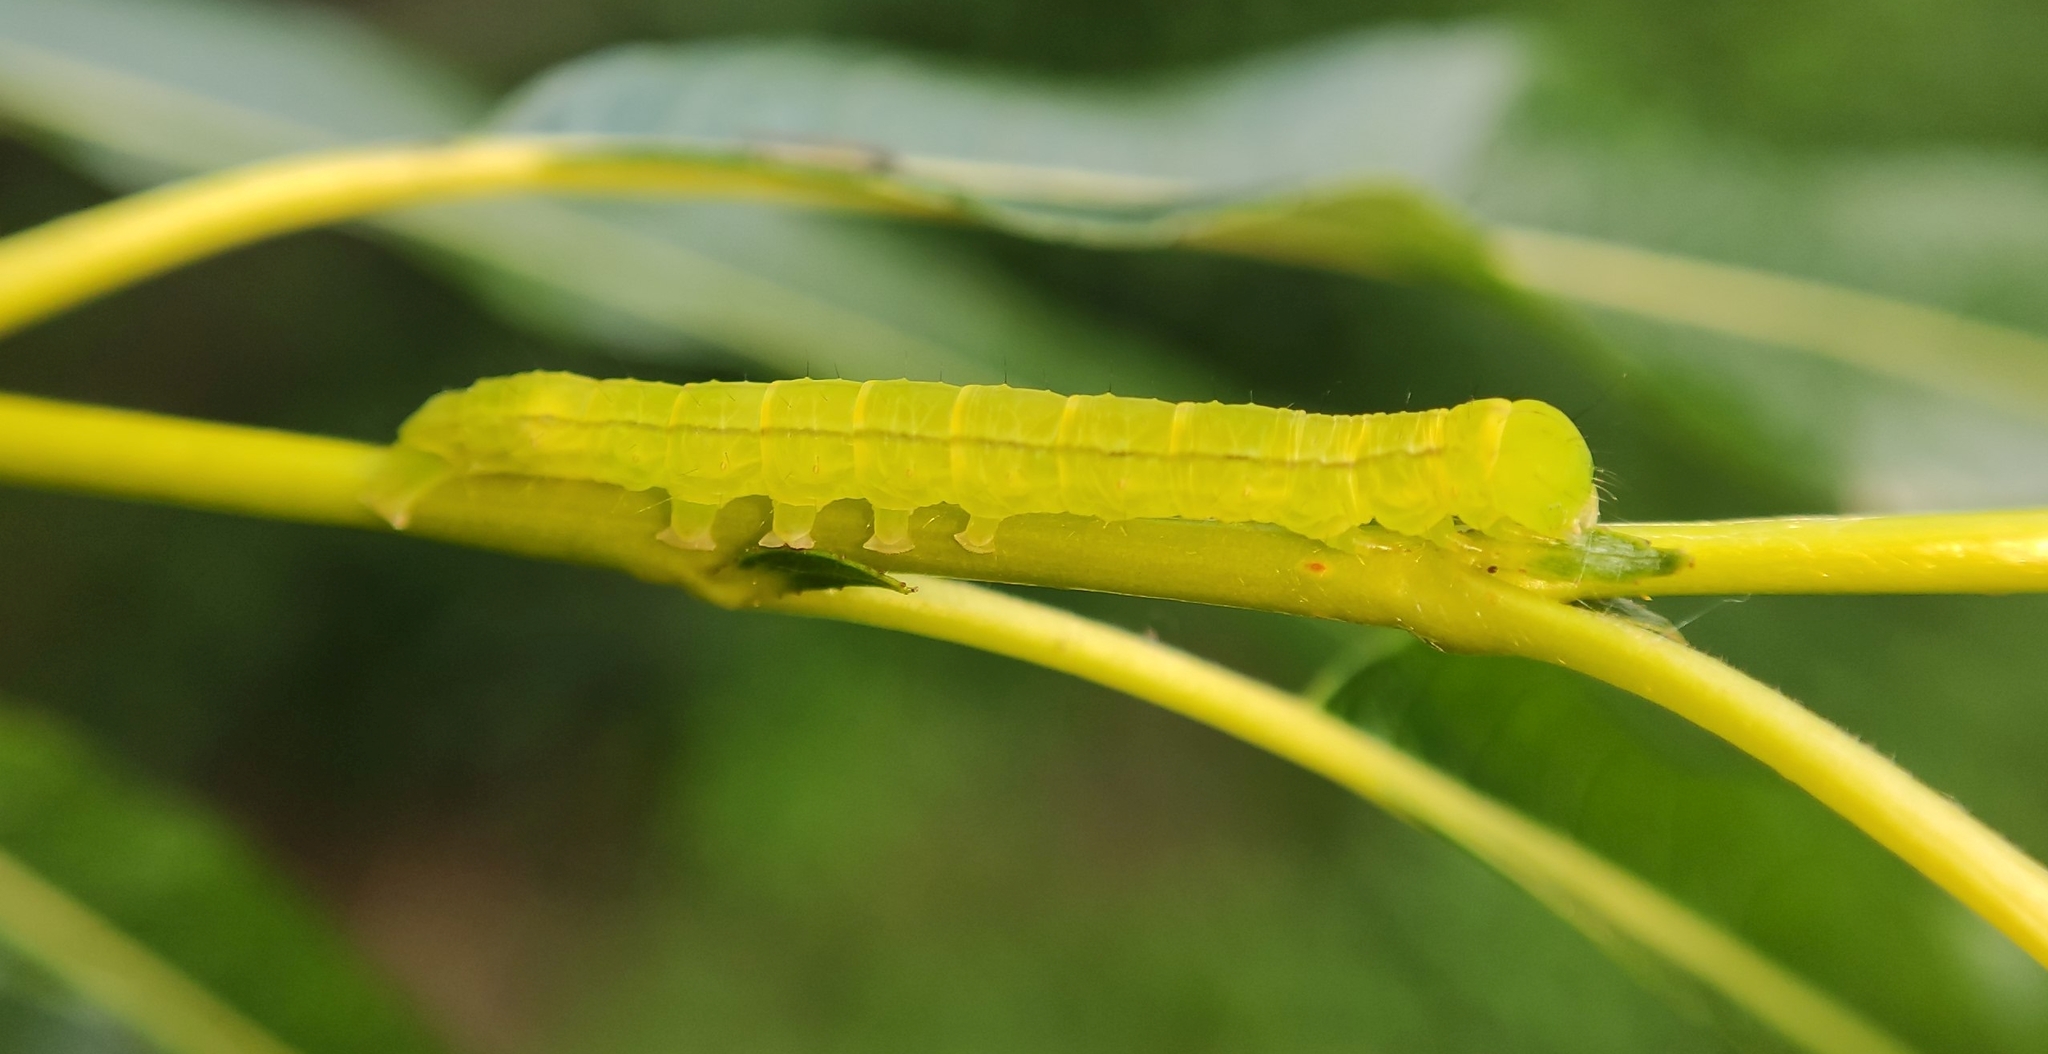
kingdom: Animalia
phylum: Arthropoda
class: Insecta
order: Lepidoptera
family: Erebidae
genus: Scoliopteryx
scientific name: Scoliopteryx libatrix
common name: Herald
